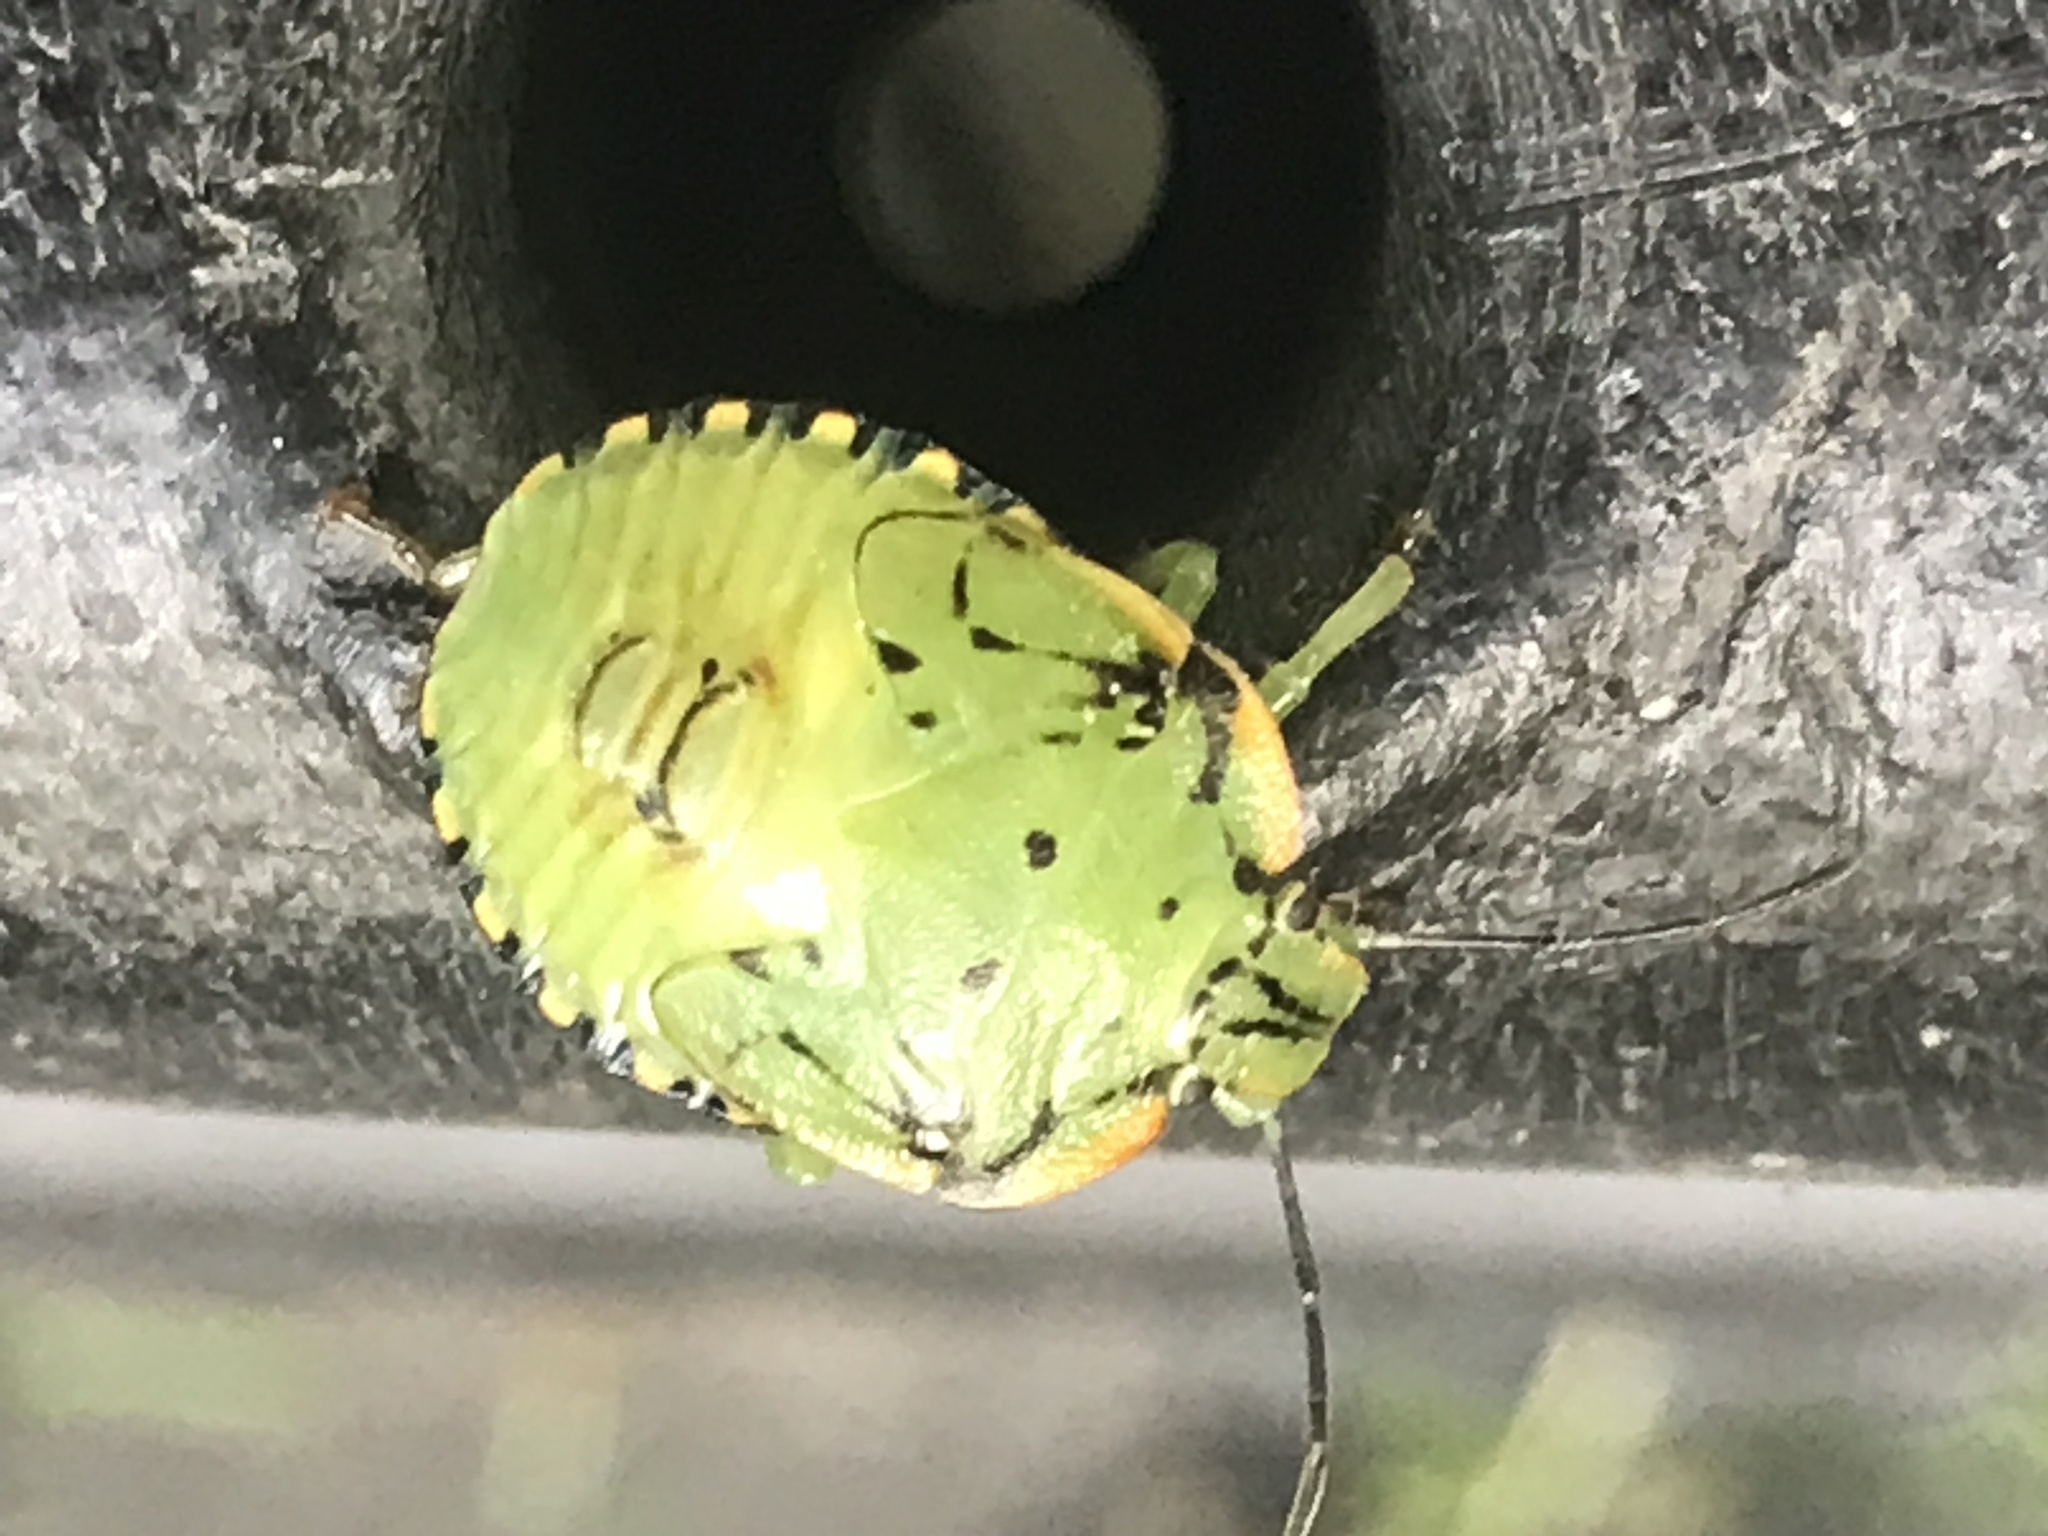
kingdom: Animalia
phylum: Arthropoda
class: Insecta
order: Hemiptera
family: Pentatomidae
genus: Chinavia
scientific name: Chinavia hilaris
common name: Green stink bug
